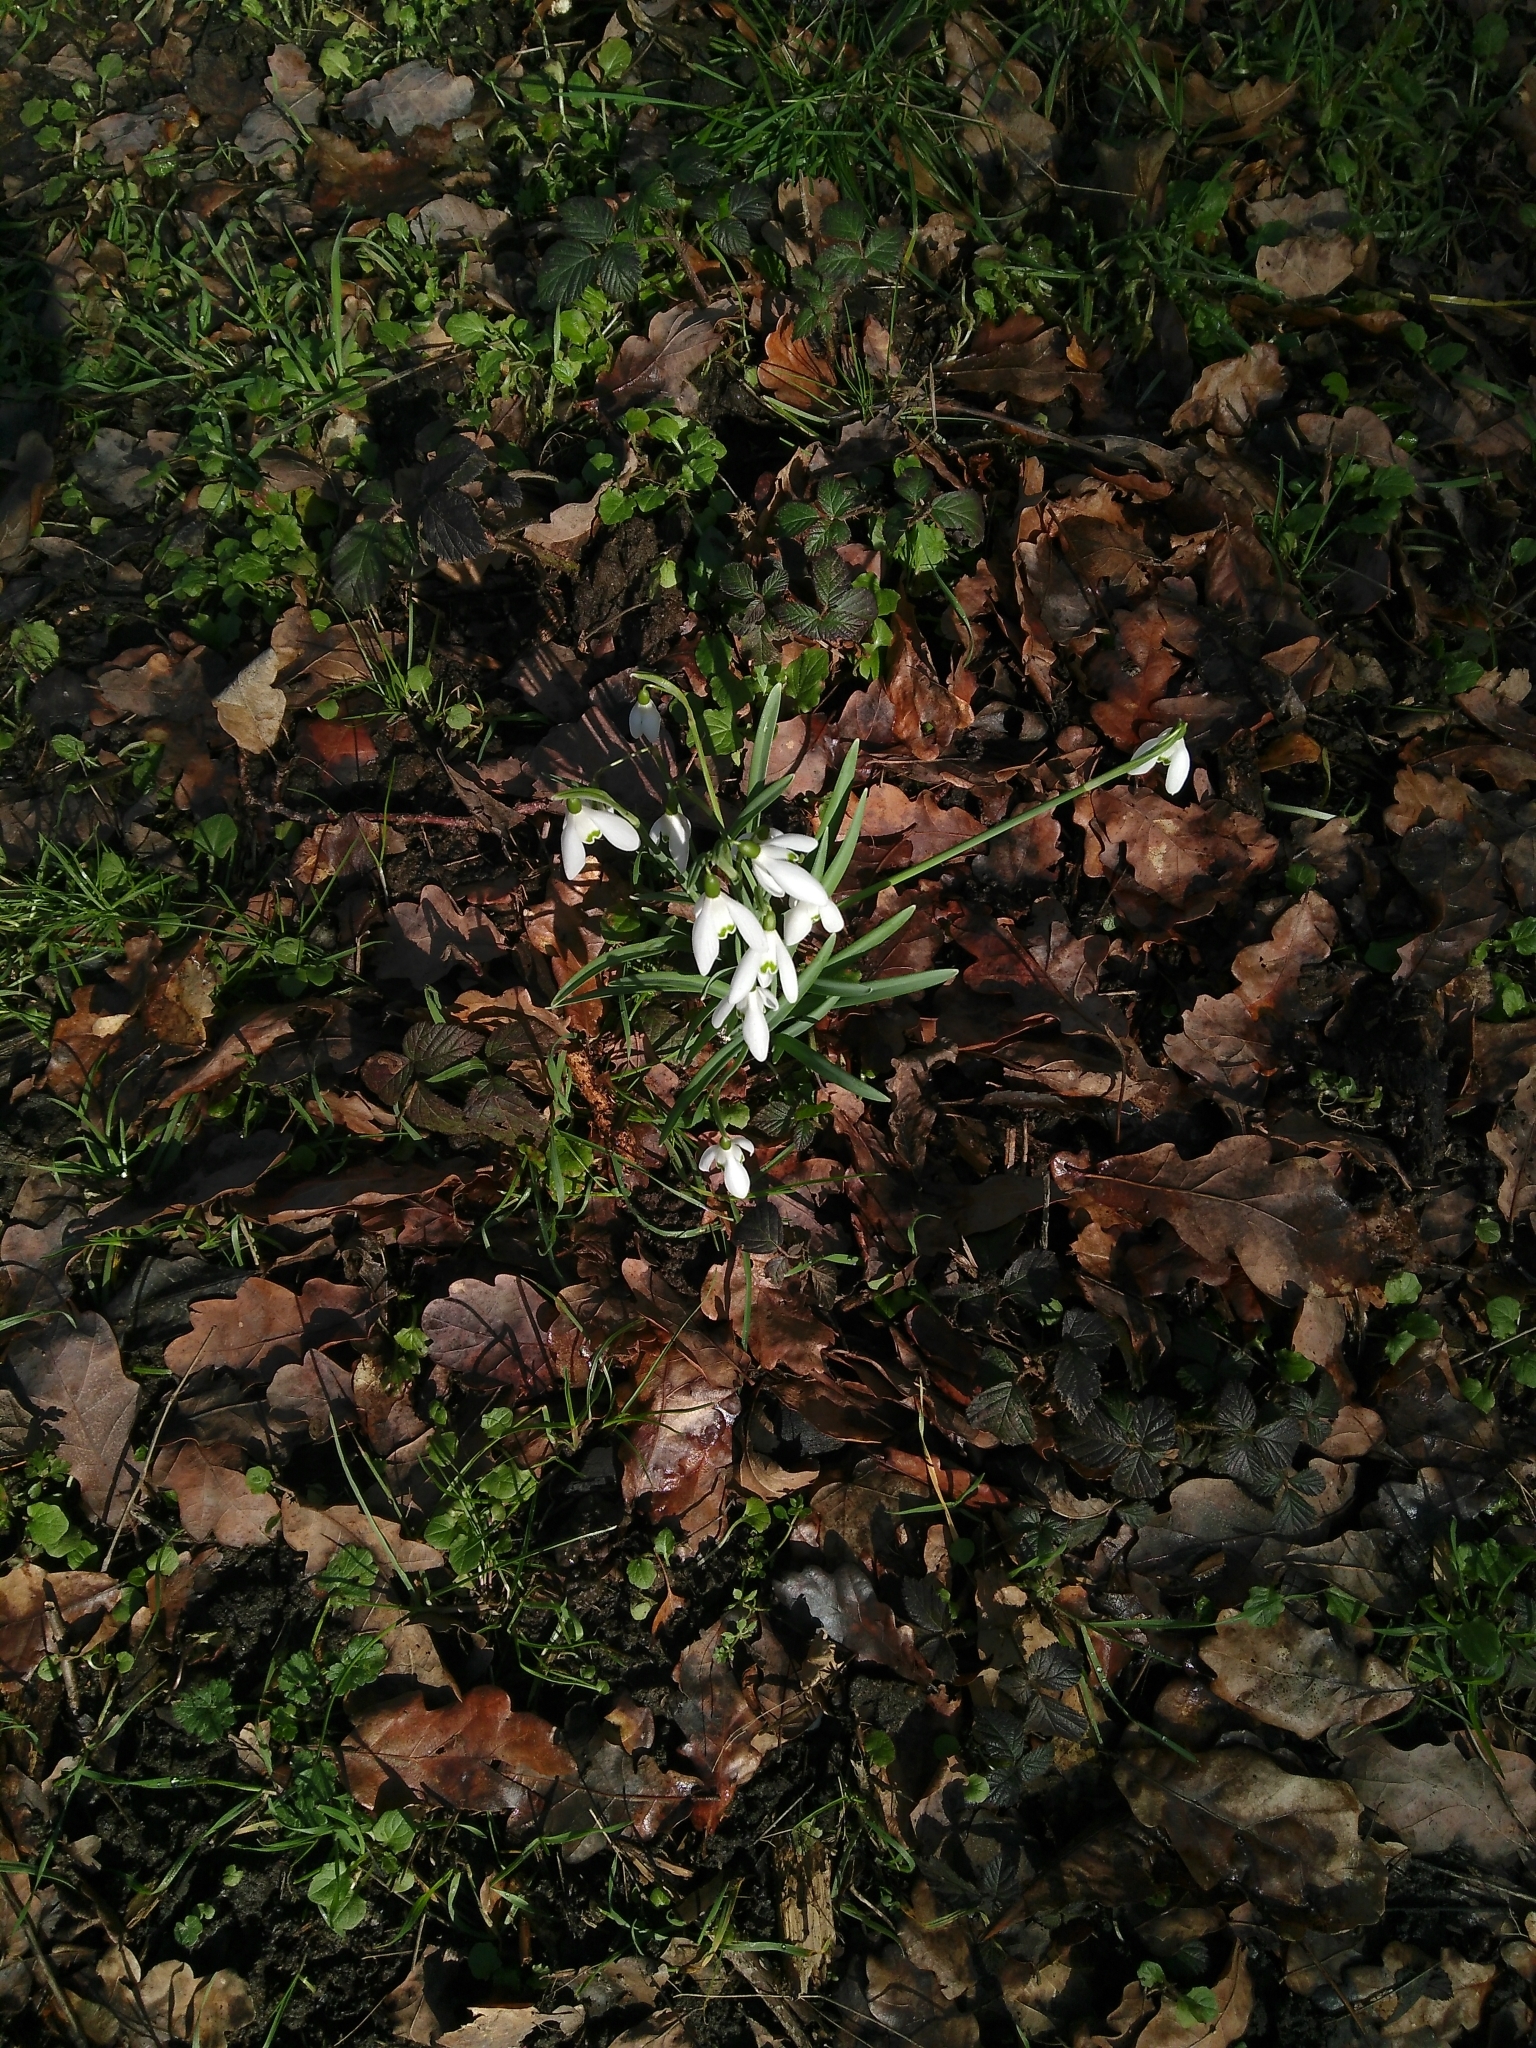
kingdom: Plantae
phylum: Tracheophyta
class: Liliopsida
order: Asparagales
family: Amaryllidaceae
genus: Galanthus
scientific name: Galanthus nivalis
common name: Snowdrop
